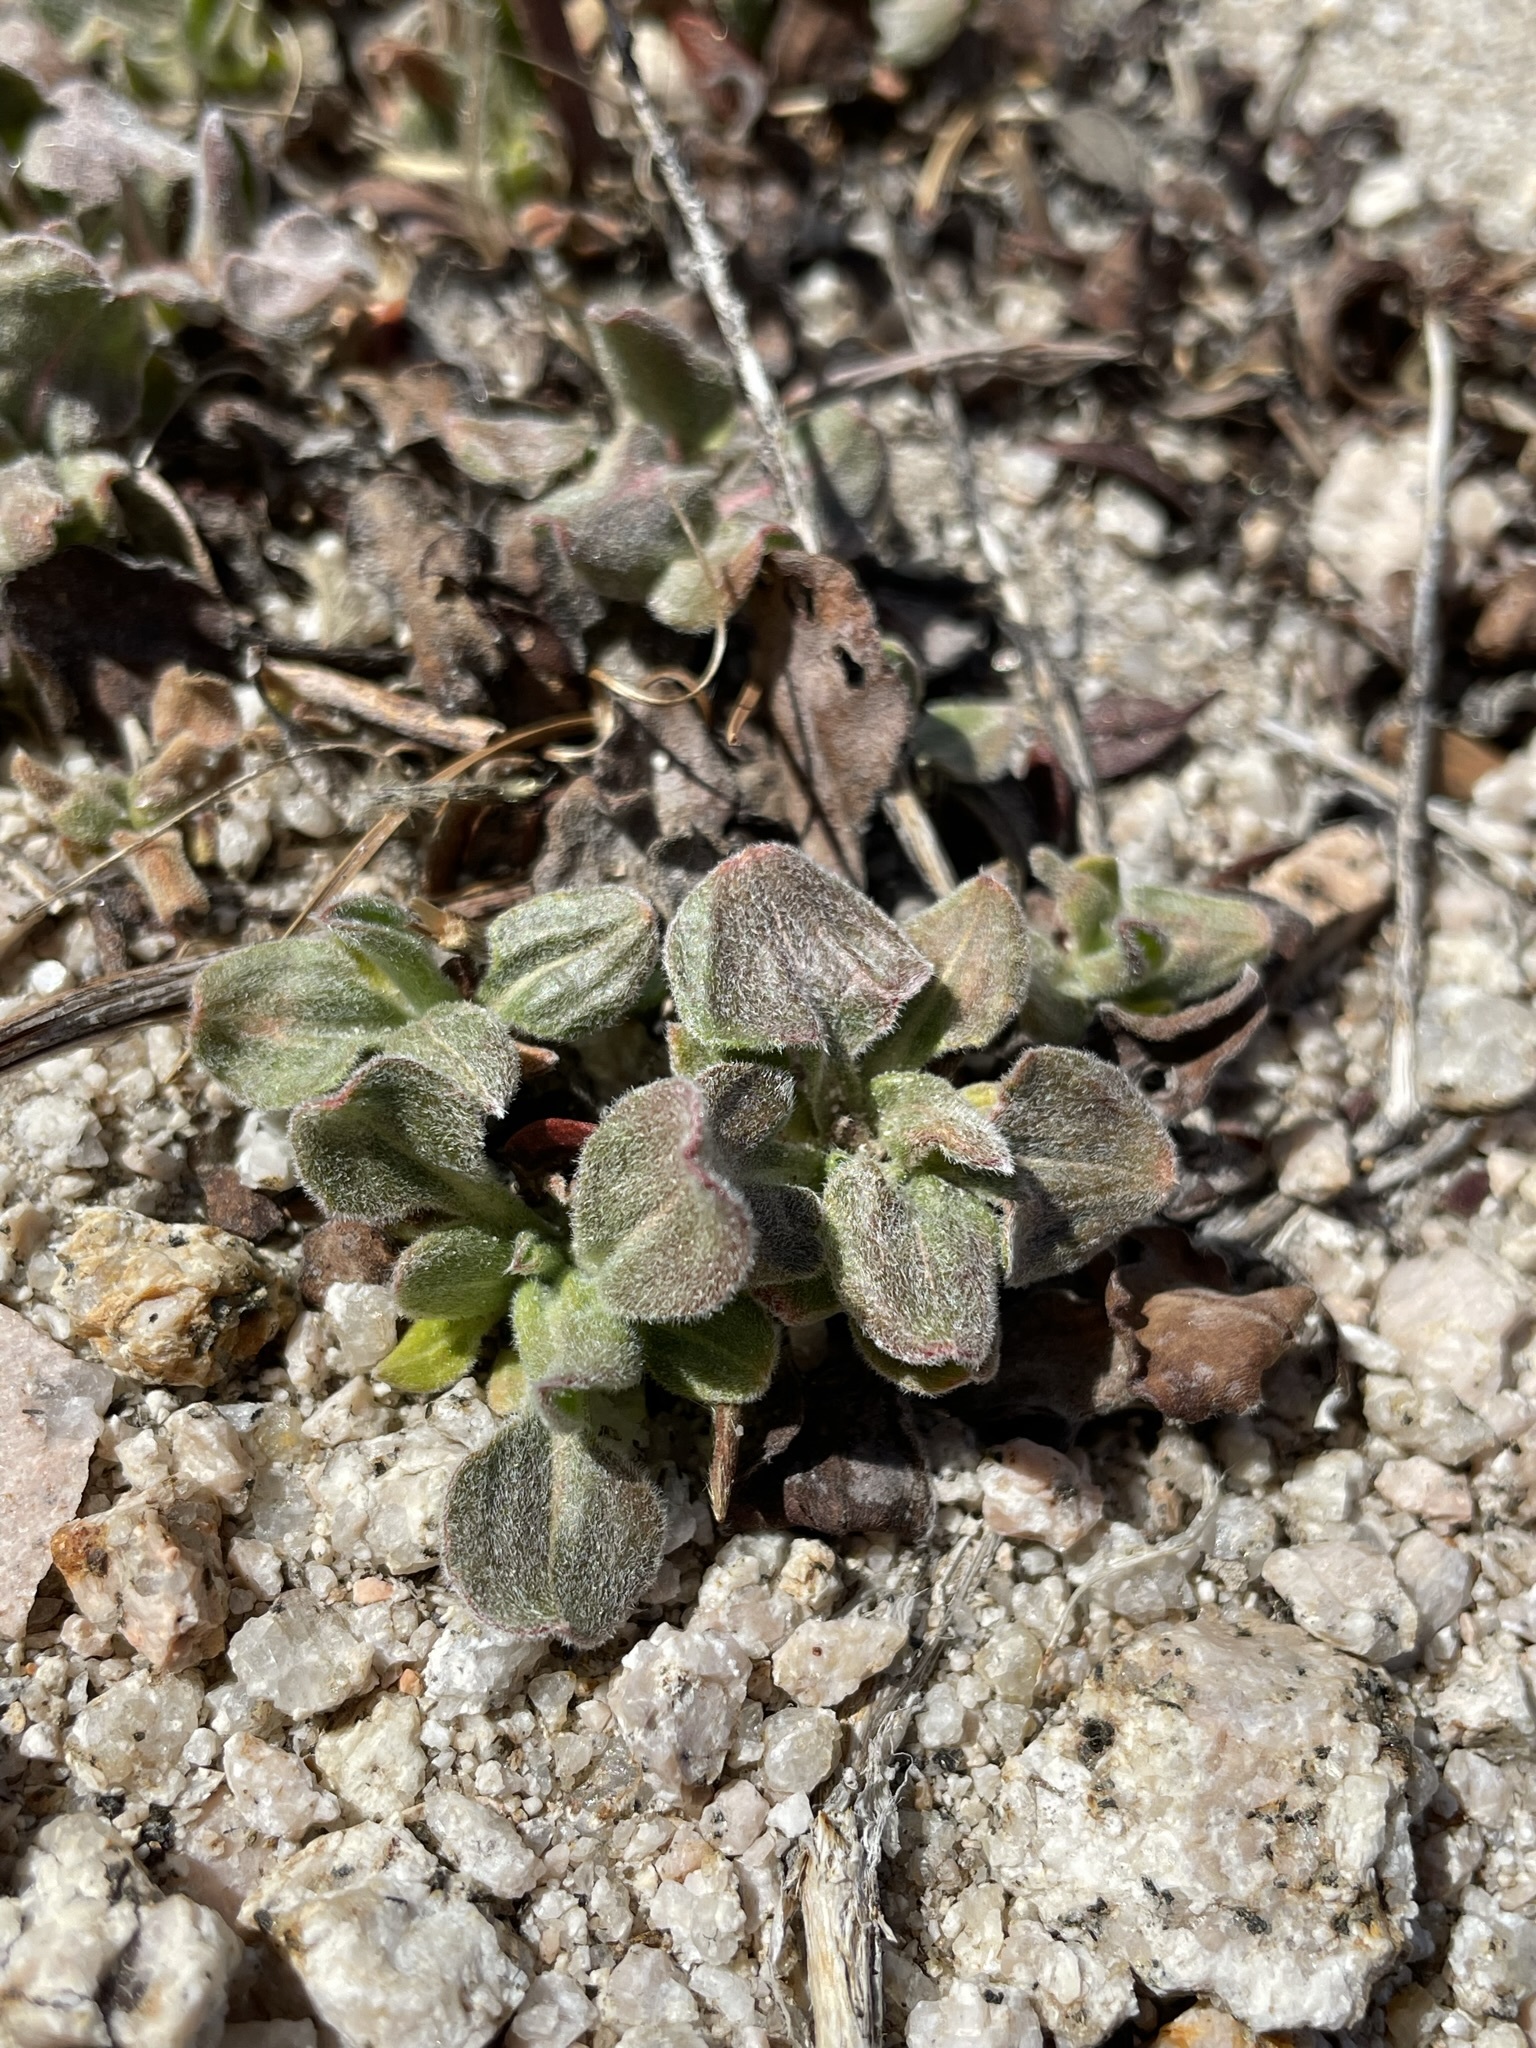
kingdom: Plantae
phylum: Tracheophyta
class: Magnoliopsida
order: Caryophyllales
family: Polygonaceae
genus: Eriogonum
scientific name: Eriogonum latens
